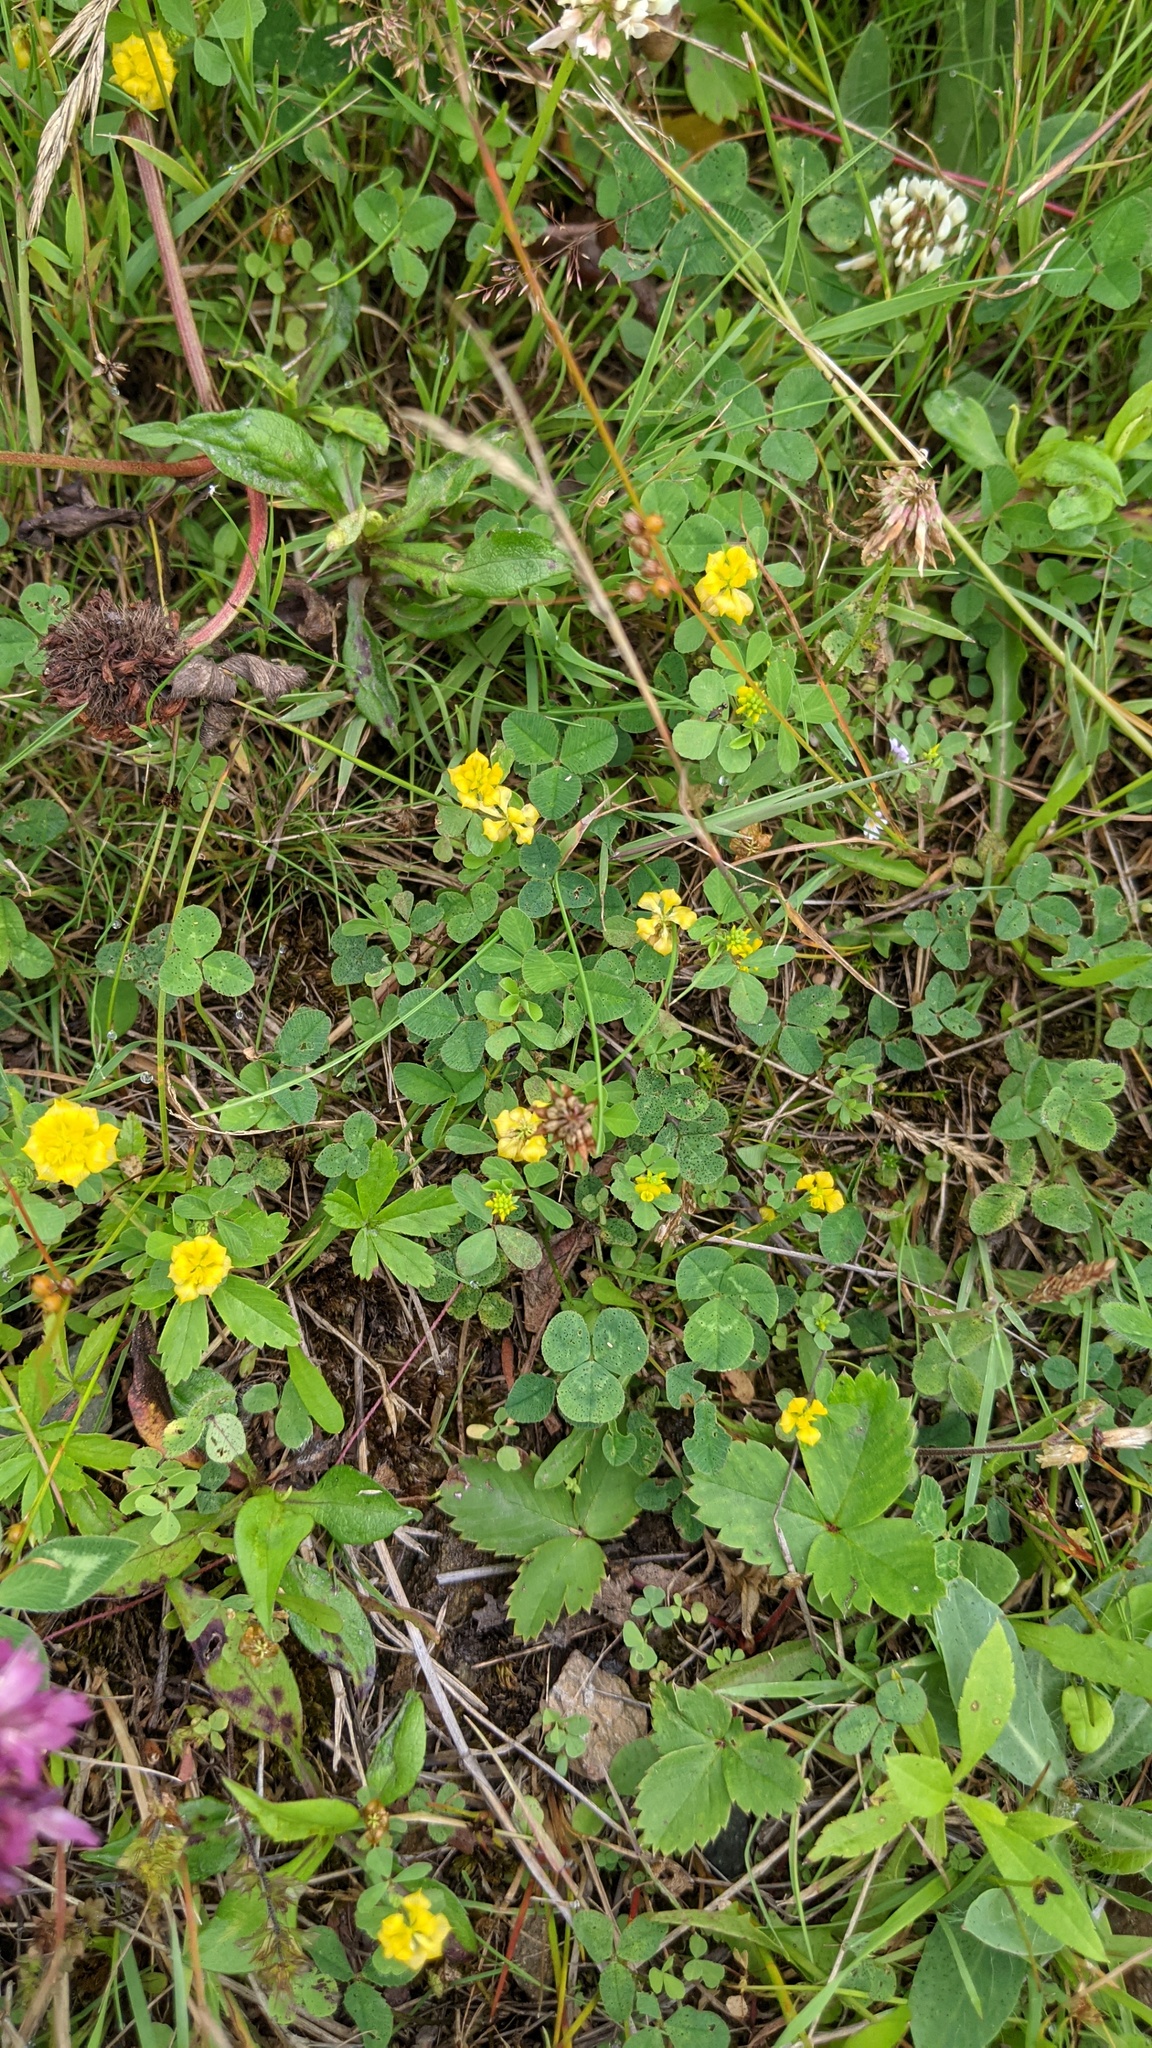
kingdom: Plantae
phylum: Tracheophyta
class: Magnoliopsida
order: Fabales
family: Fabaceae
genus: Trifolium
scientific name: Trifolium
